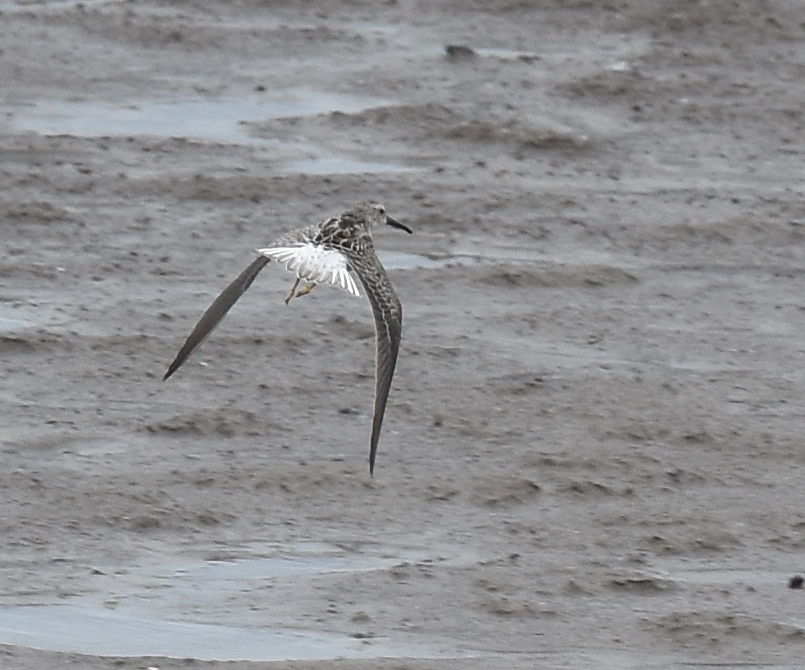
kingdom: Animalia
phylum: Chordata
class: Aves
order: Charadriiformes
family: Scolopacidae
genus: Calidris
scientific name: Calidris himantopus
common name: Stilt sandpiper
